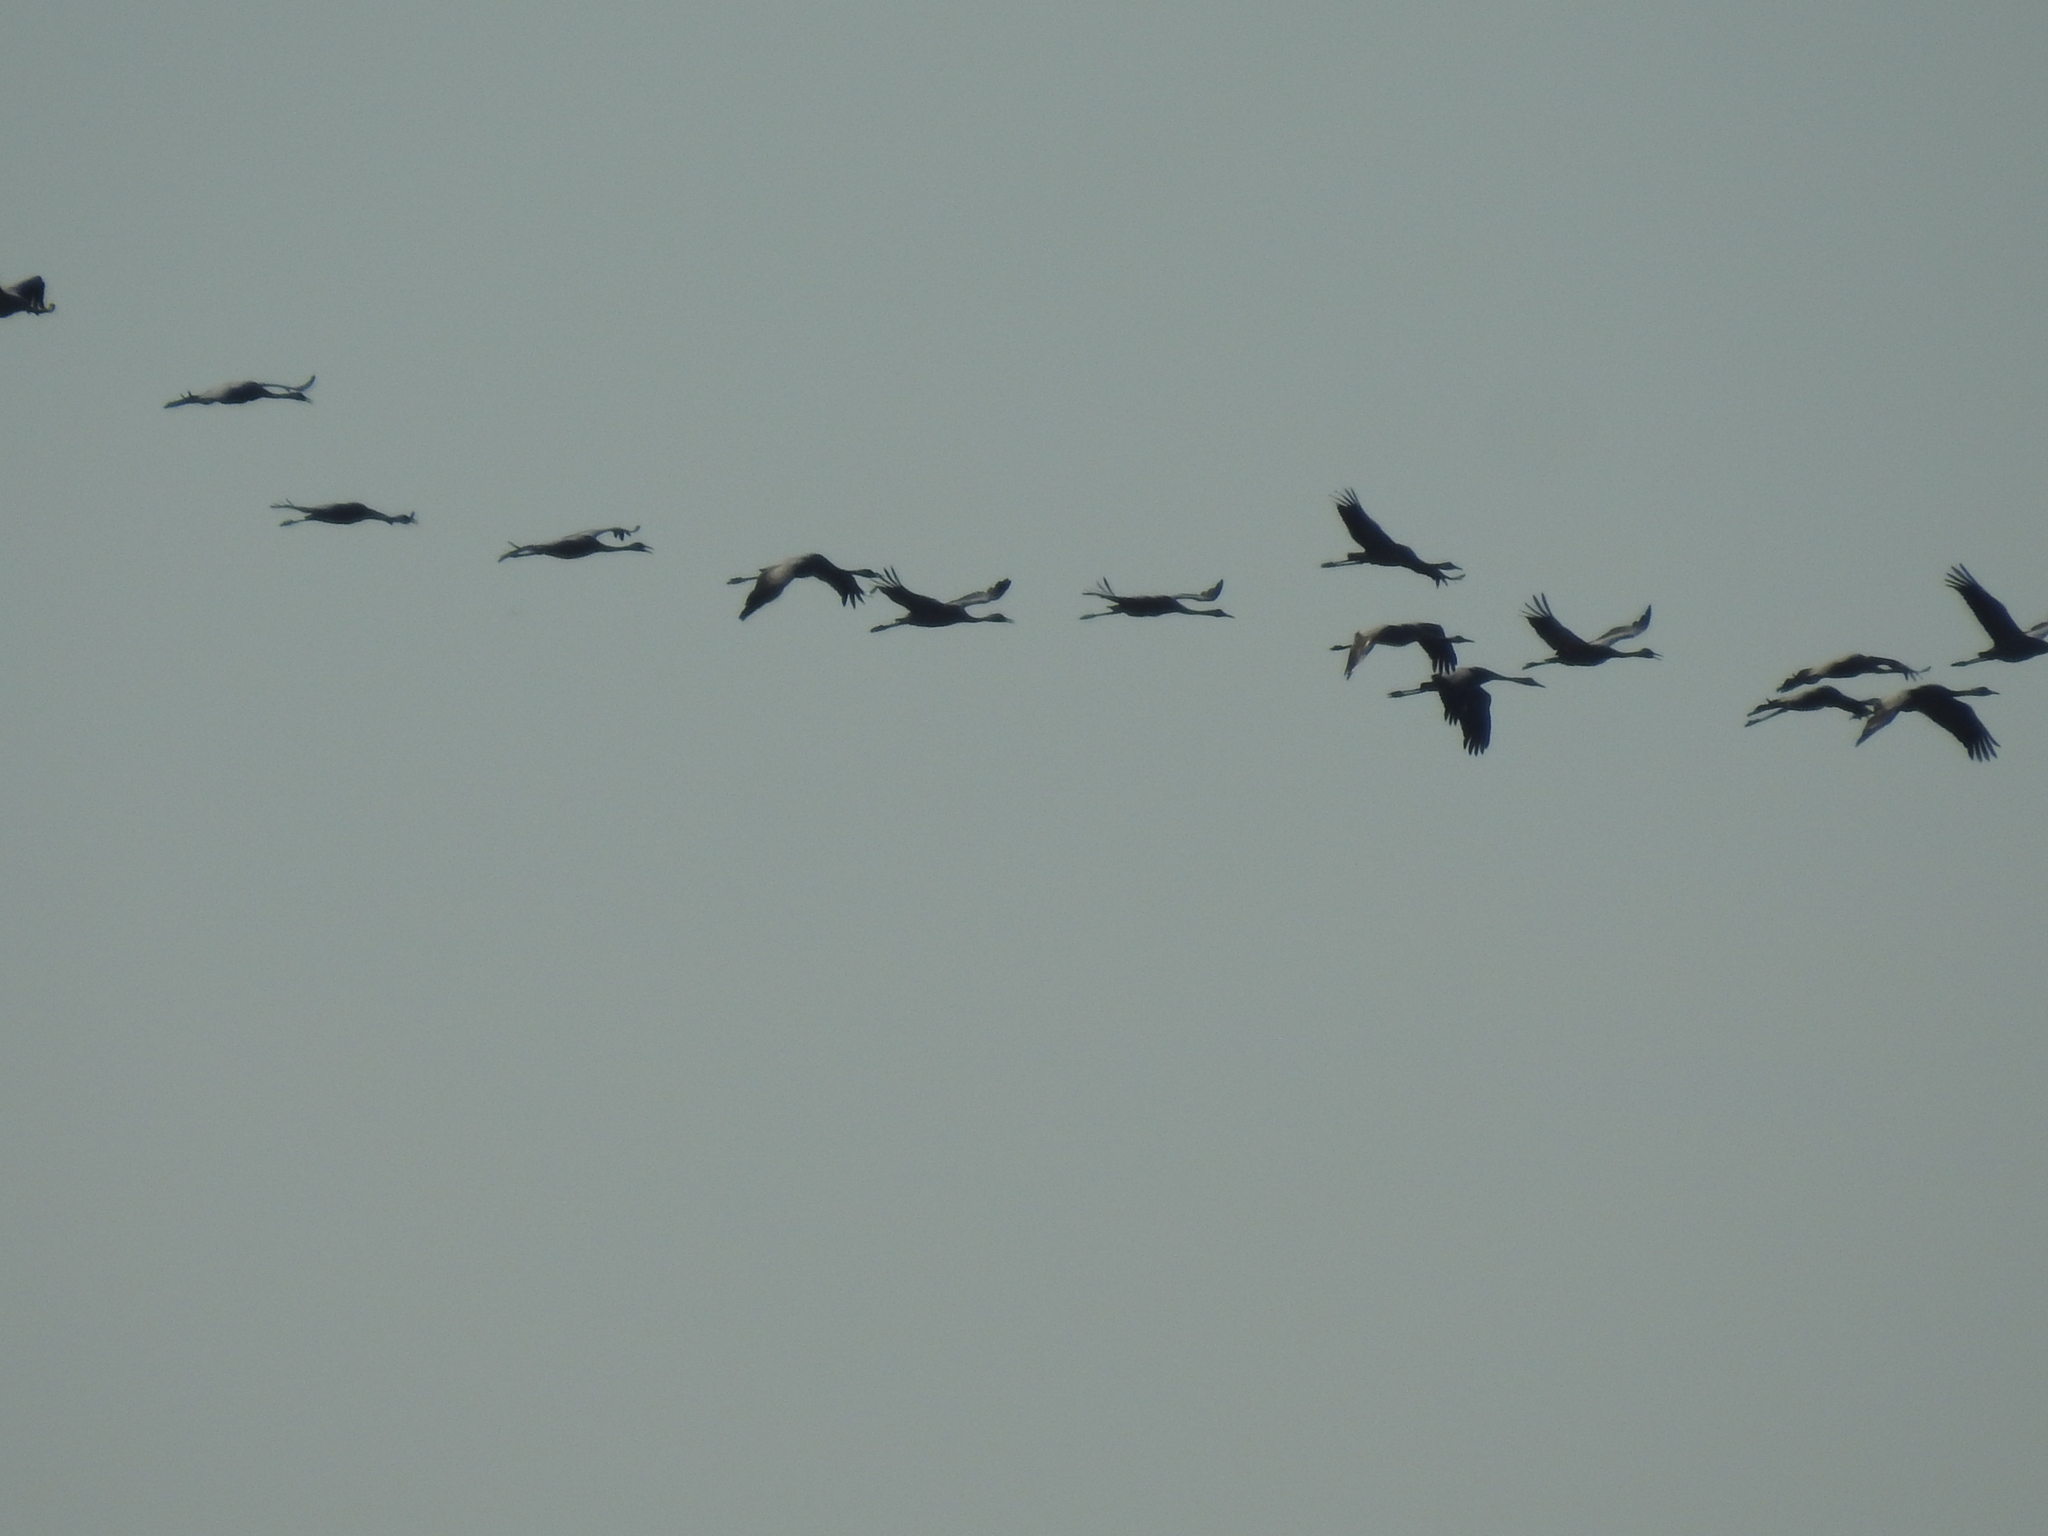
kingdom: Animalia
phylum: Chordata
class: Aves
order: Gruiformes
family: Gruidae
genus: Grus
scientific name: Grus grus
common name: Common crane
